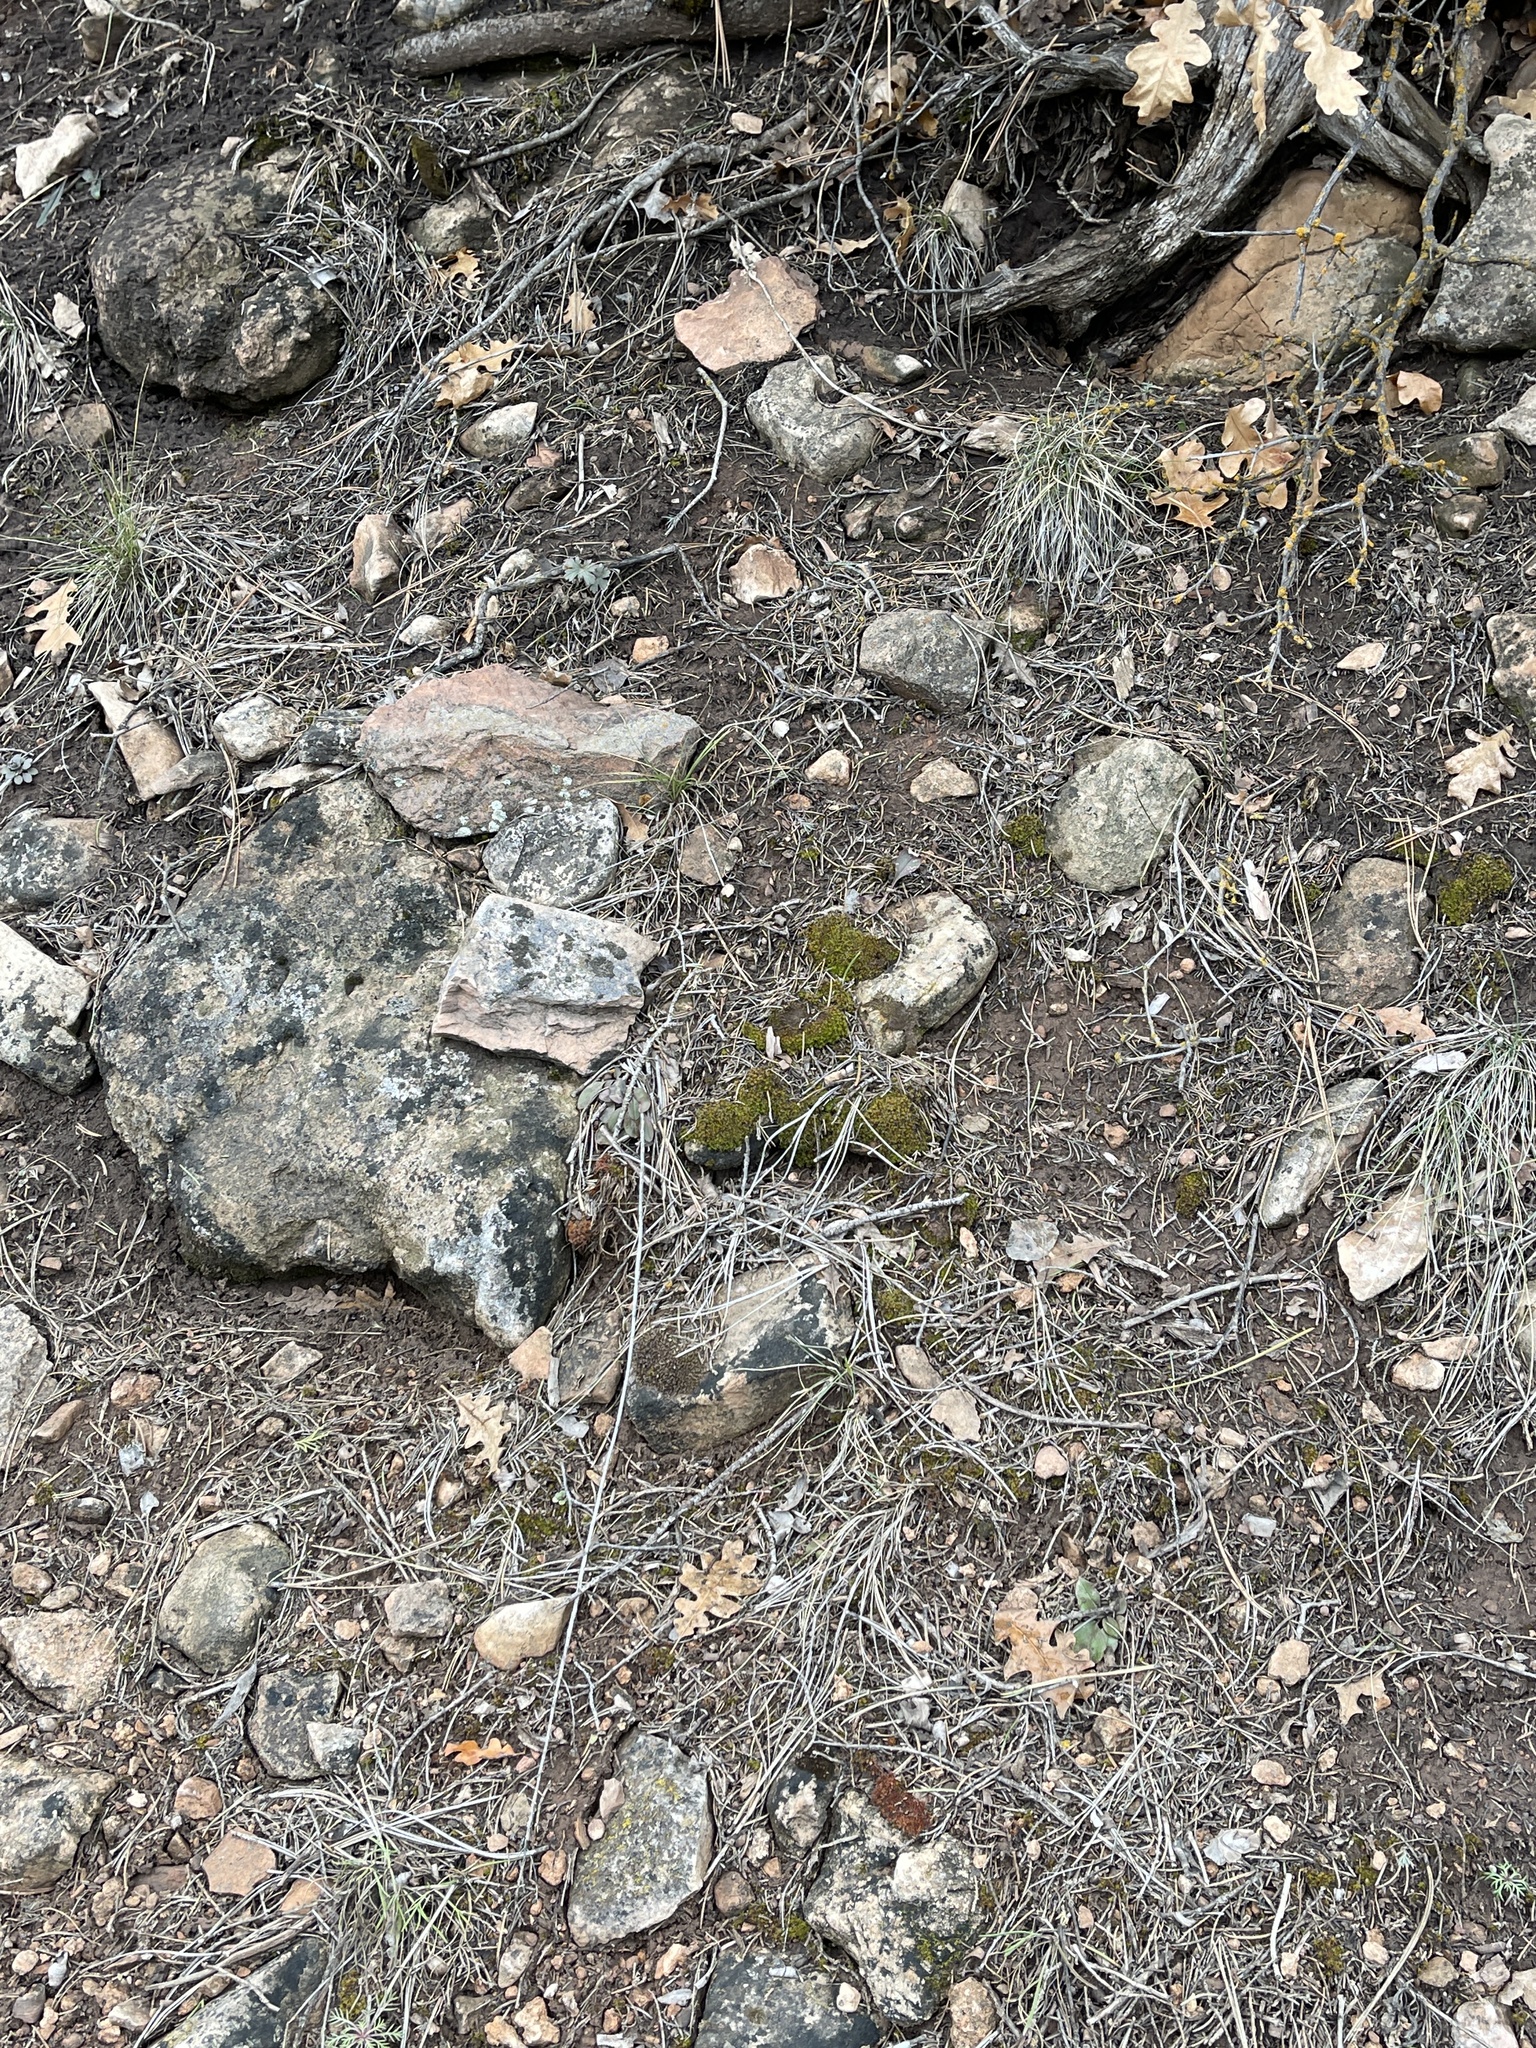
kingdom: Plantae
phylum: Bryophyta
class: Bryopsida
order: Pottiales
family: Pottiaceae
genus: Syntrichia
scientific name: Syntrichia ruralis
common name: Sidewalk screw moss
